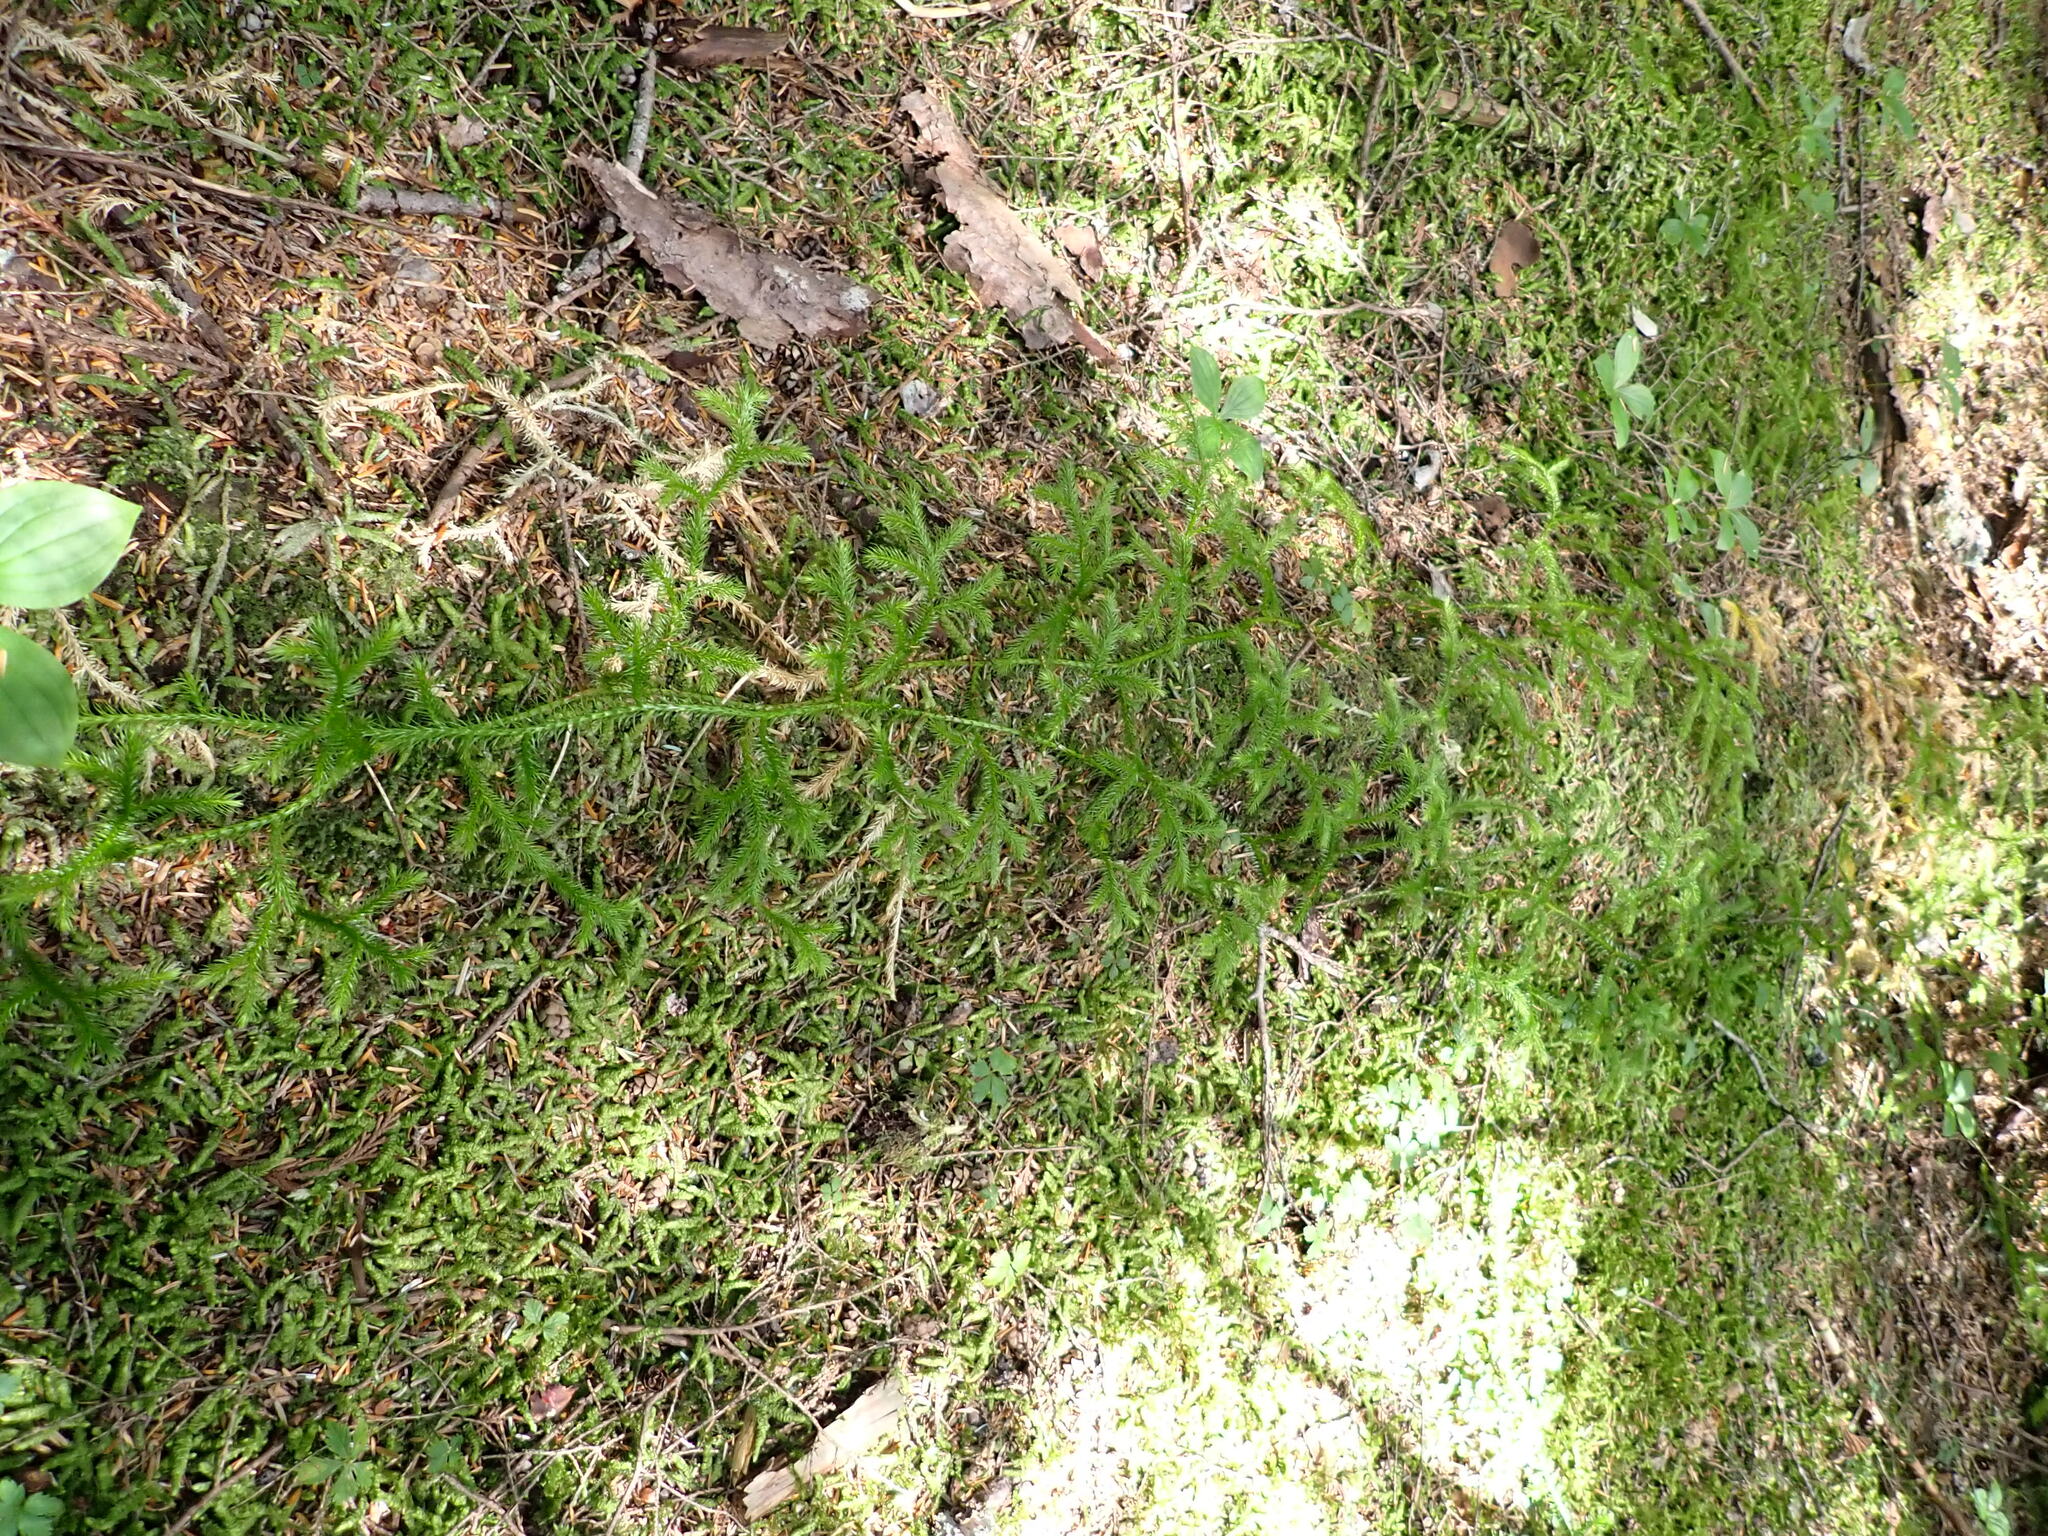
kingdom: Plantae
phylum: Tracheophyta
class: Lycopodiopsida
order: Lycopodiales
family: Lycopodiaceae
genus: Lycopodium
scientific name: Lycopodium clavatum
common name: Stag's-horn clubmoss
